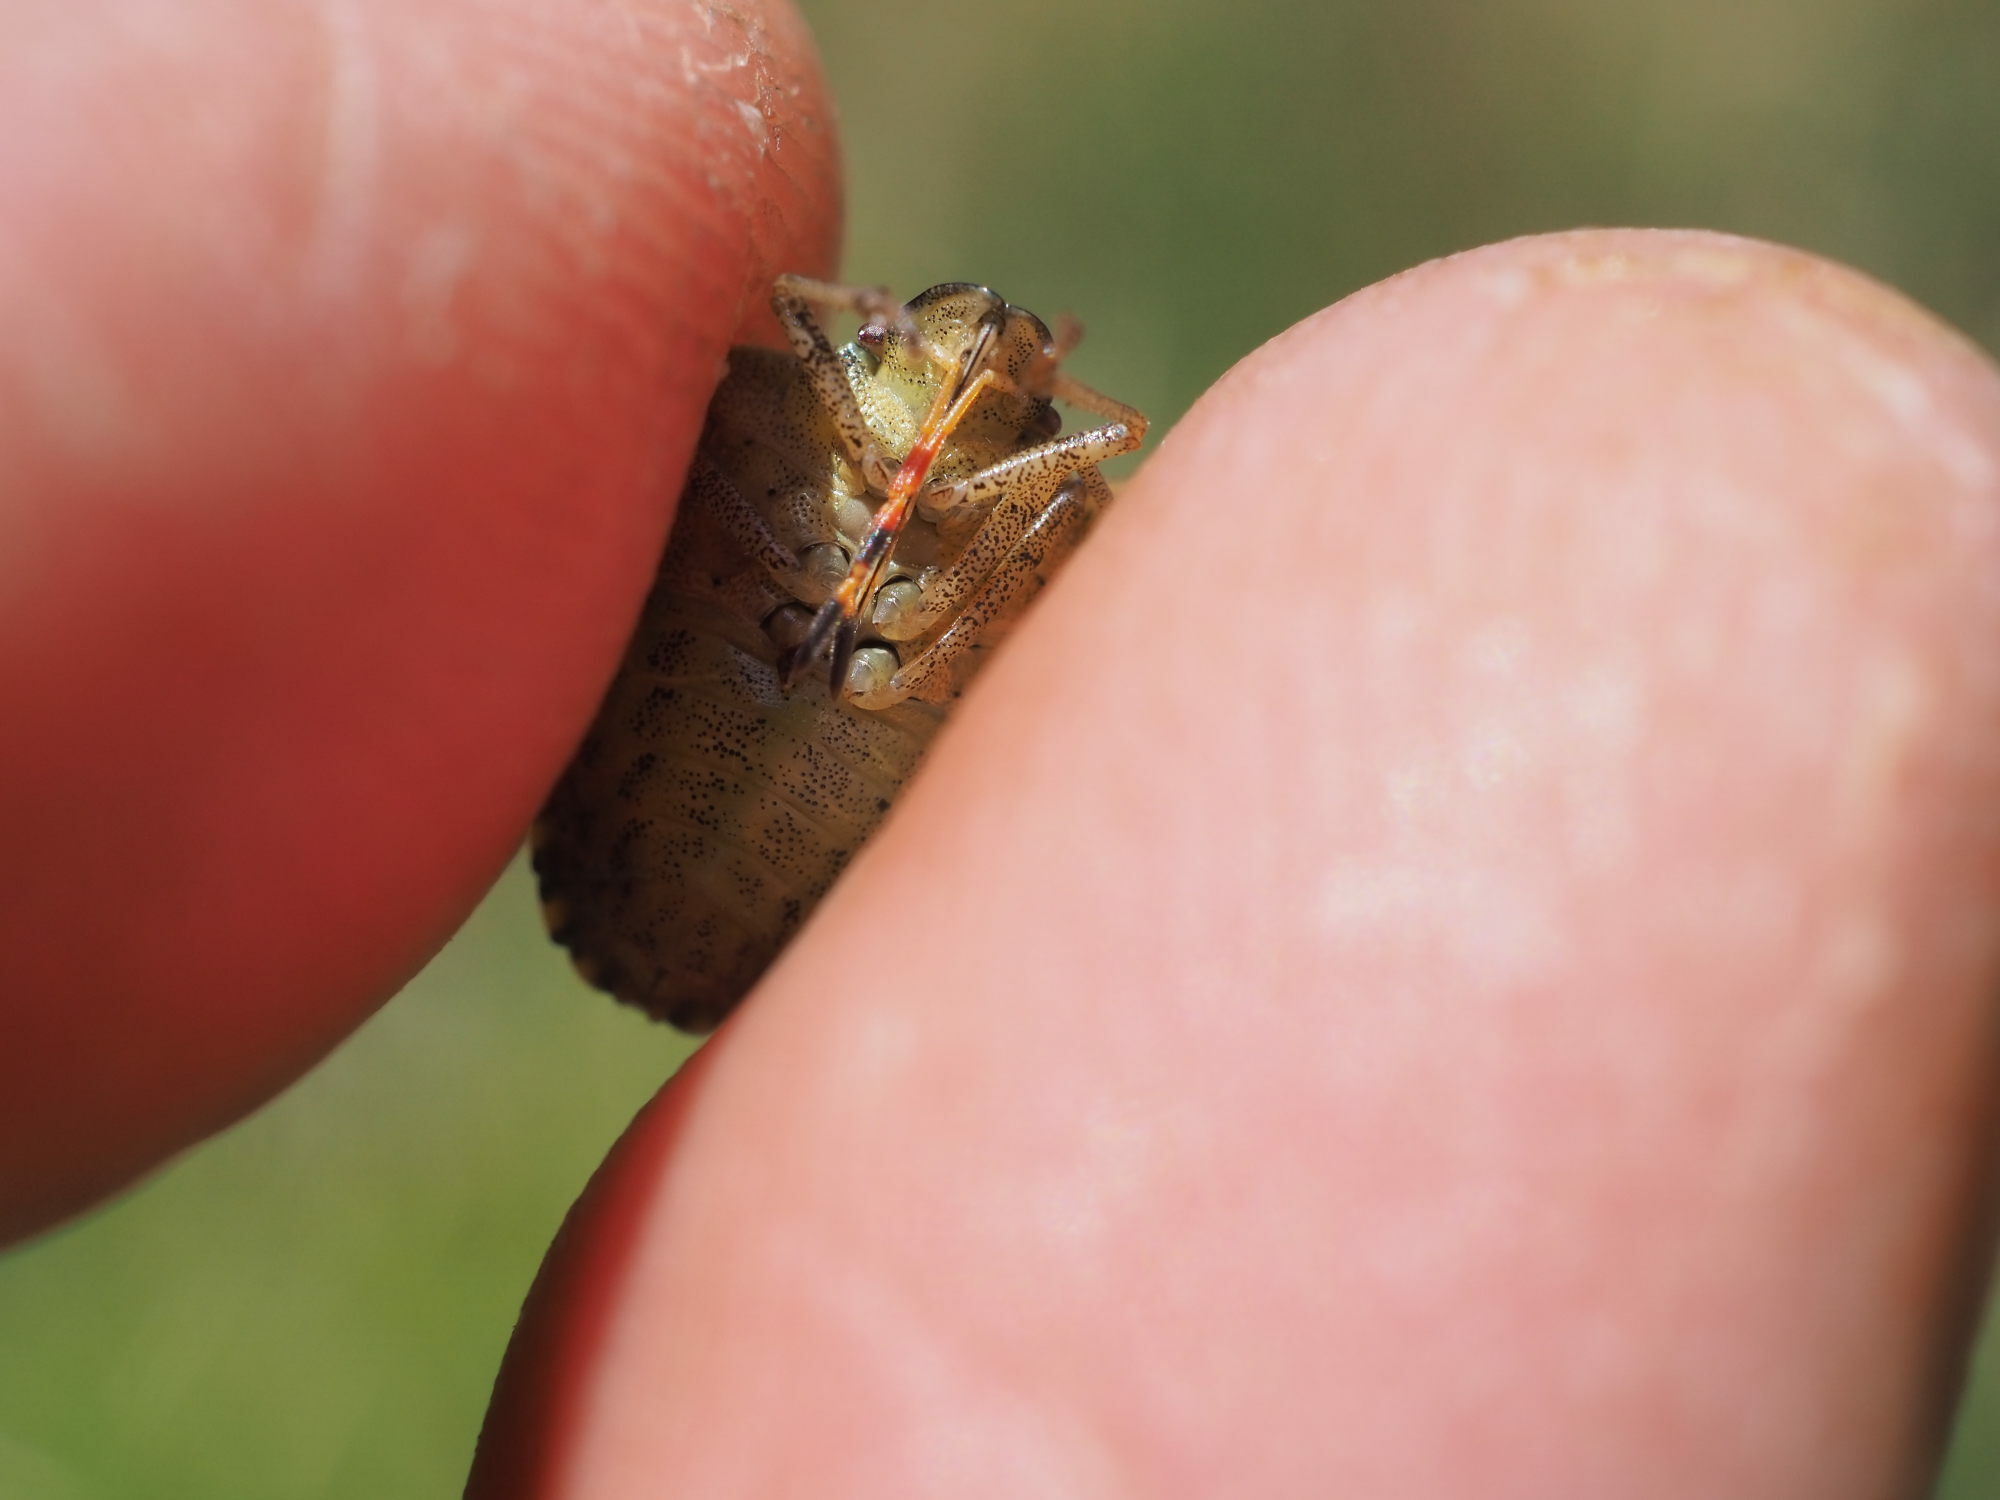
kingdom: Animalia
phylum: Arthropoda
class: Insecta
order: Hemiptera
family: Pentatomidae
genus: Holcostethus
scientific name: Holcostethus strictus
